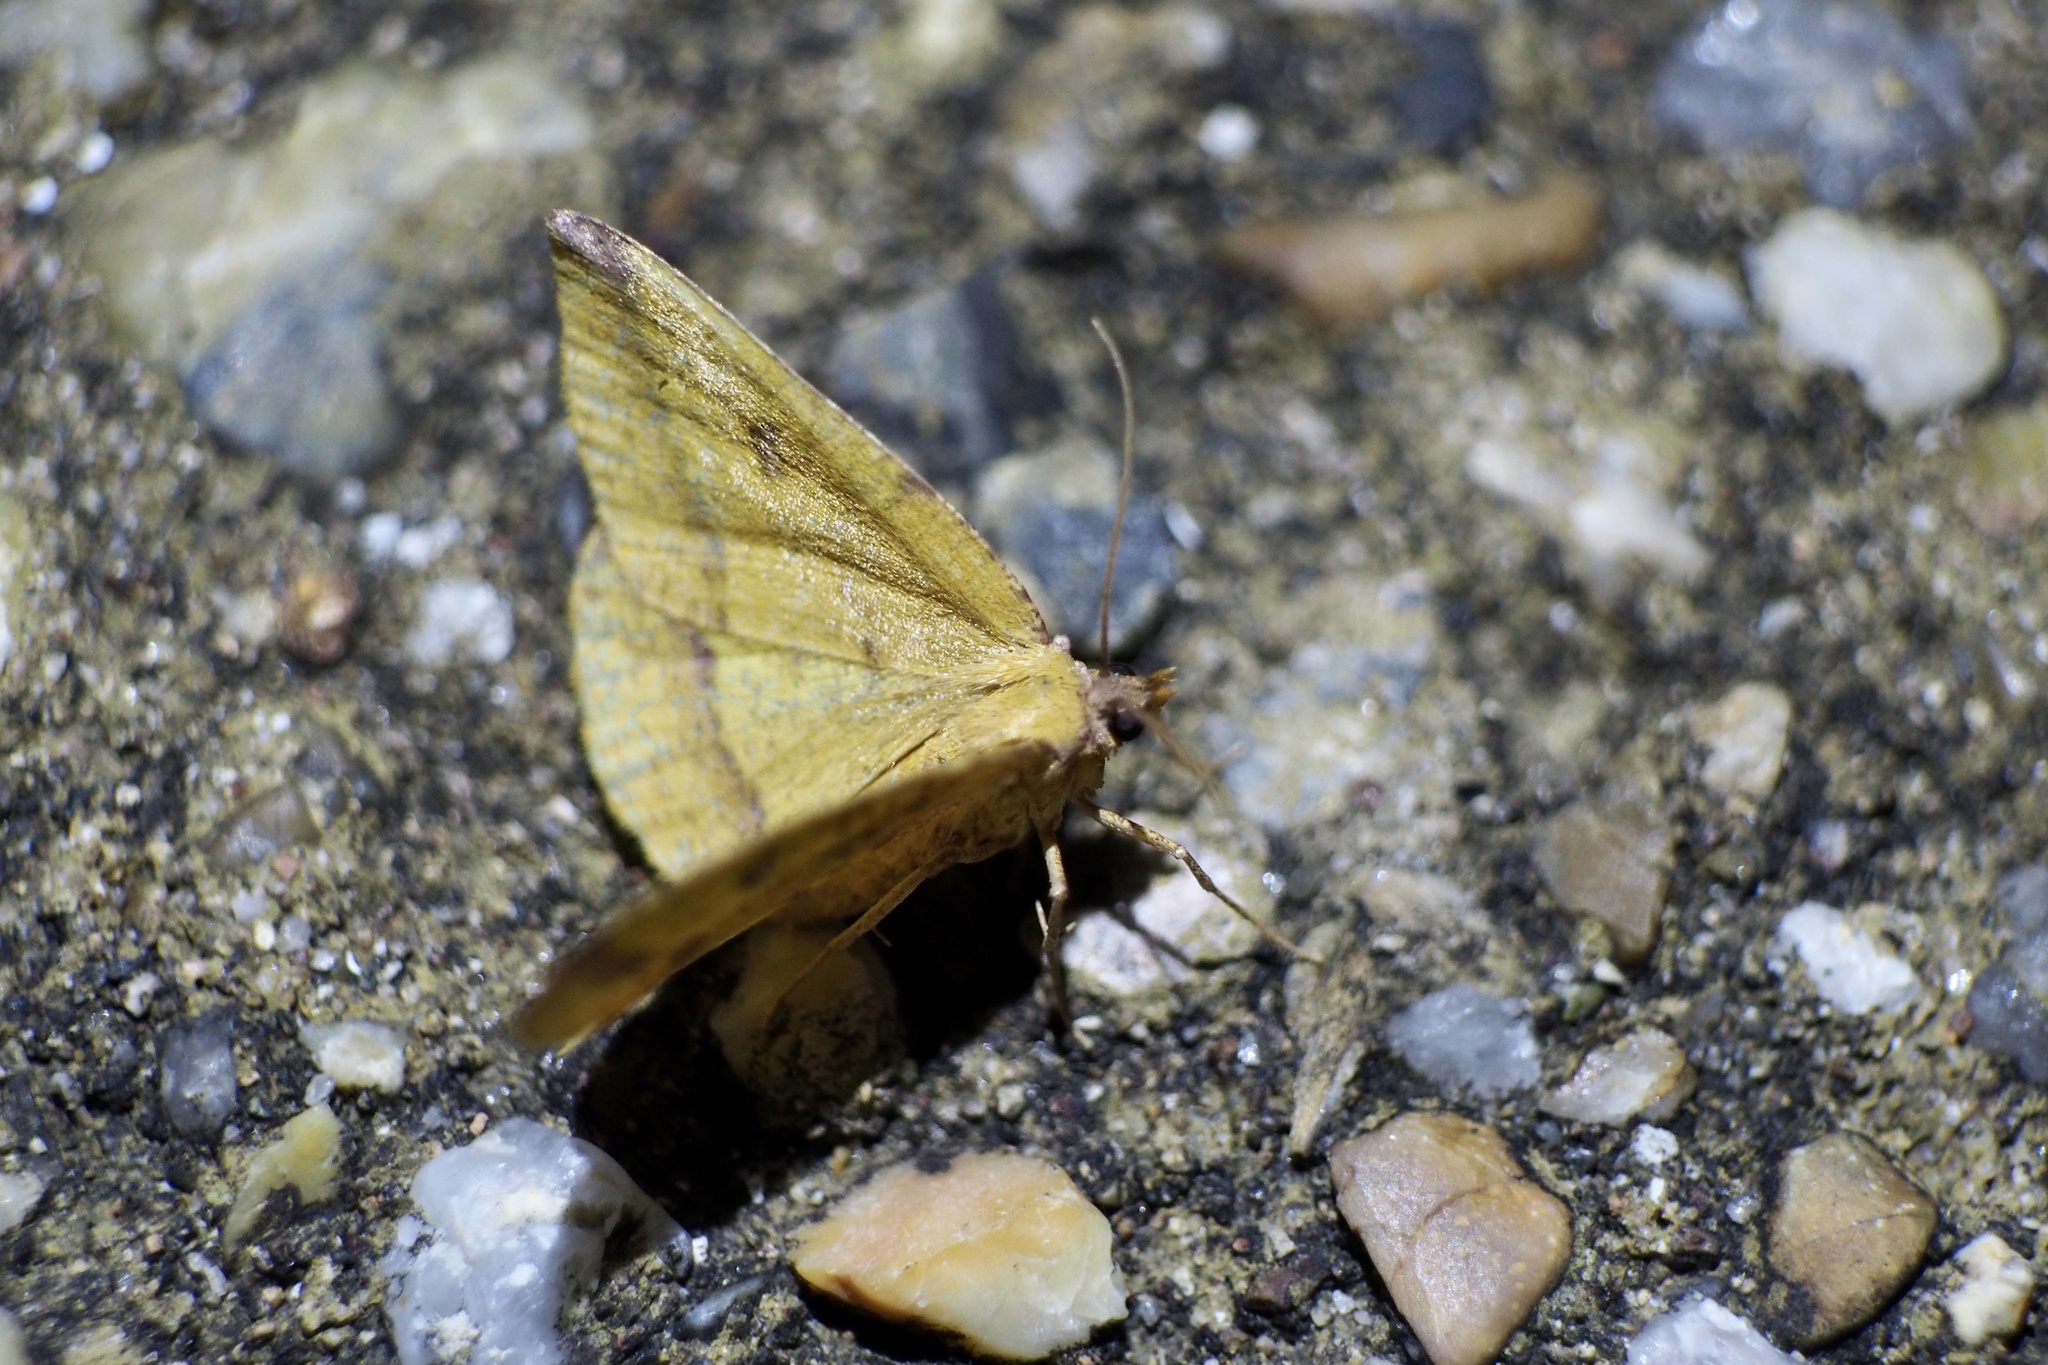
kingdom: Animalia
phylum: Arthropoda
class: Insecta
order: Lepidoptera
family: Geometridae
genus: Heterolocha
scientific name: Heterolocha aristonaria
